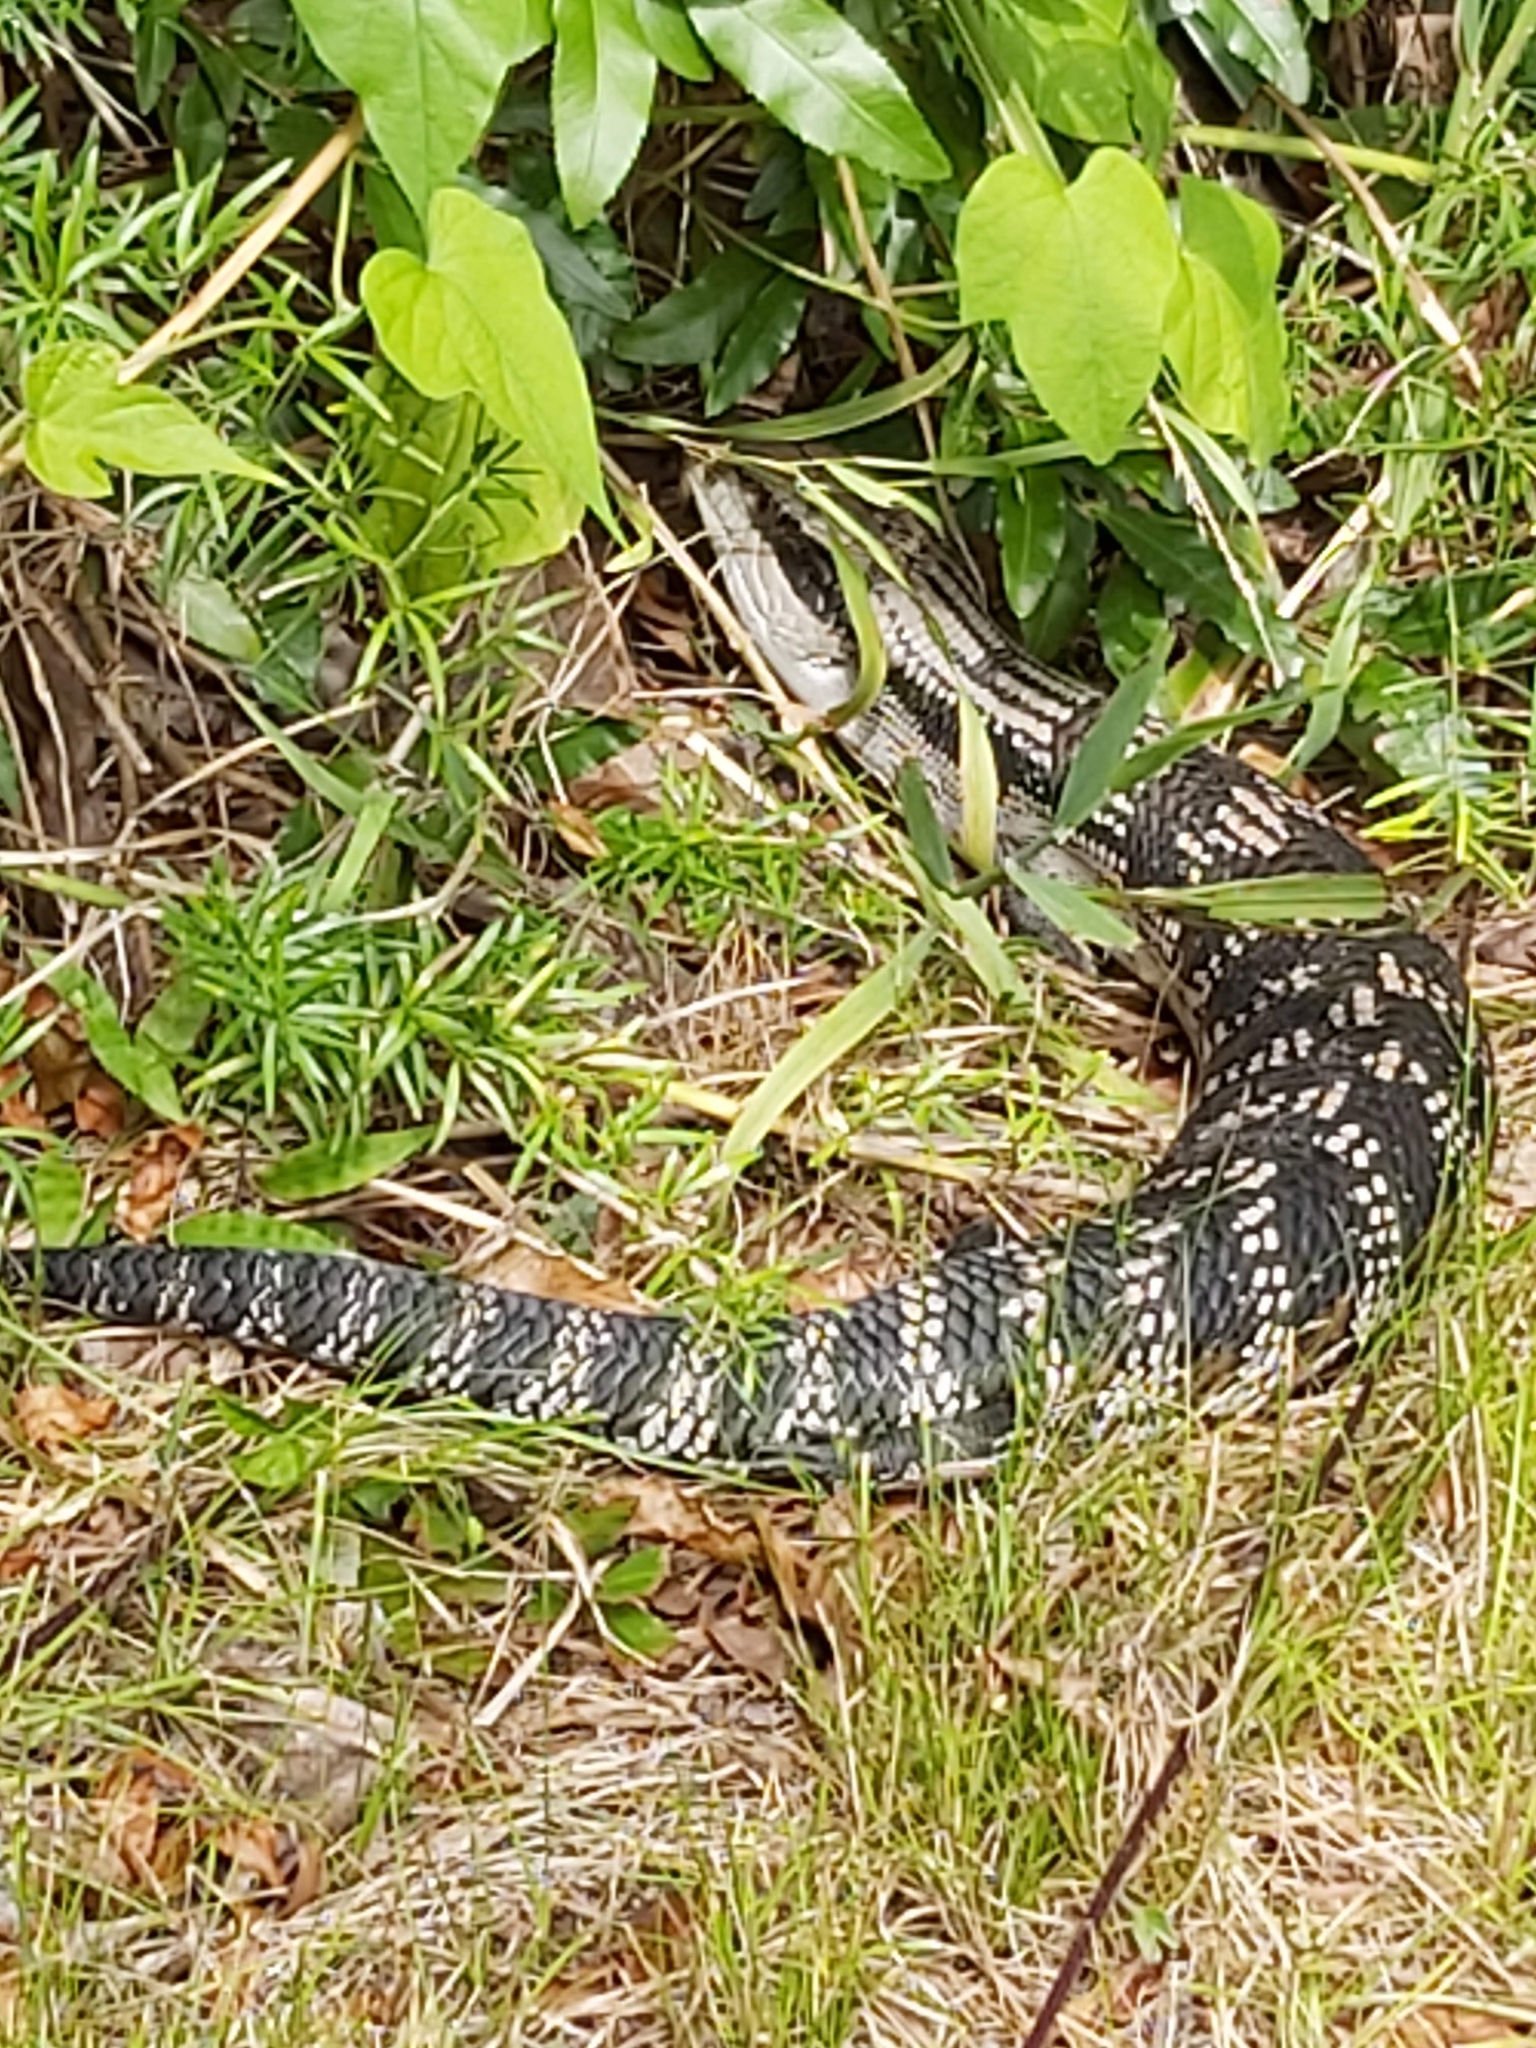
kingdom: Animalia
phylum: Chordata
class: Squamata
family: Scincidae
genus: Tiliqua
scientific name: Tiliqua scincoides
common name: Common bluetongue
